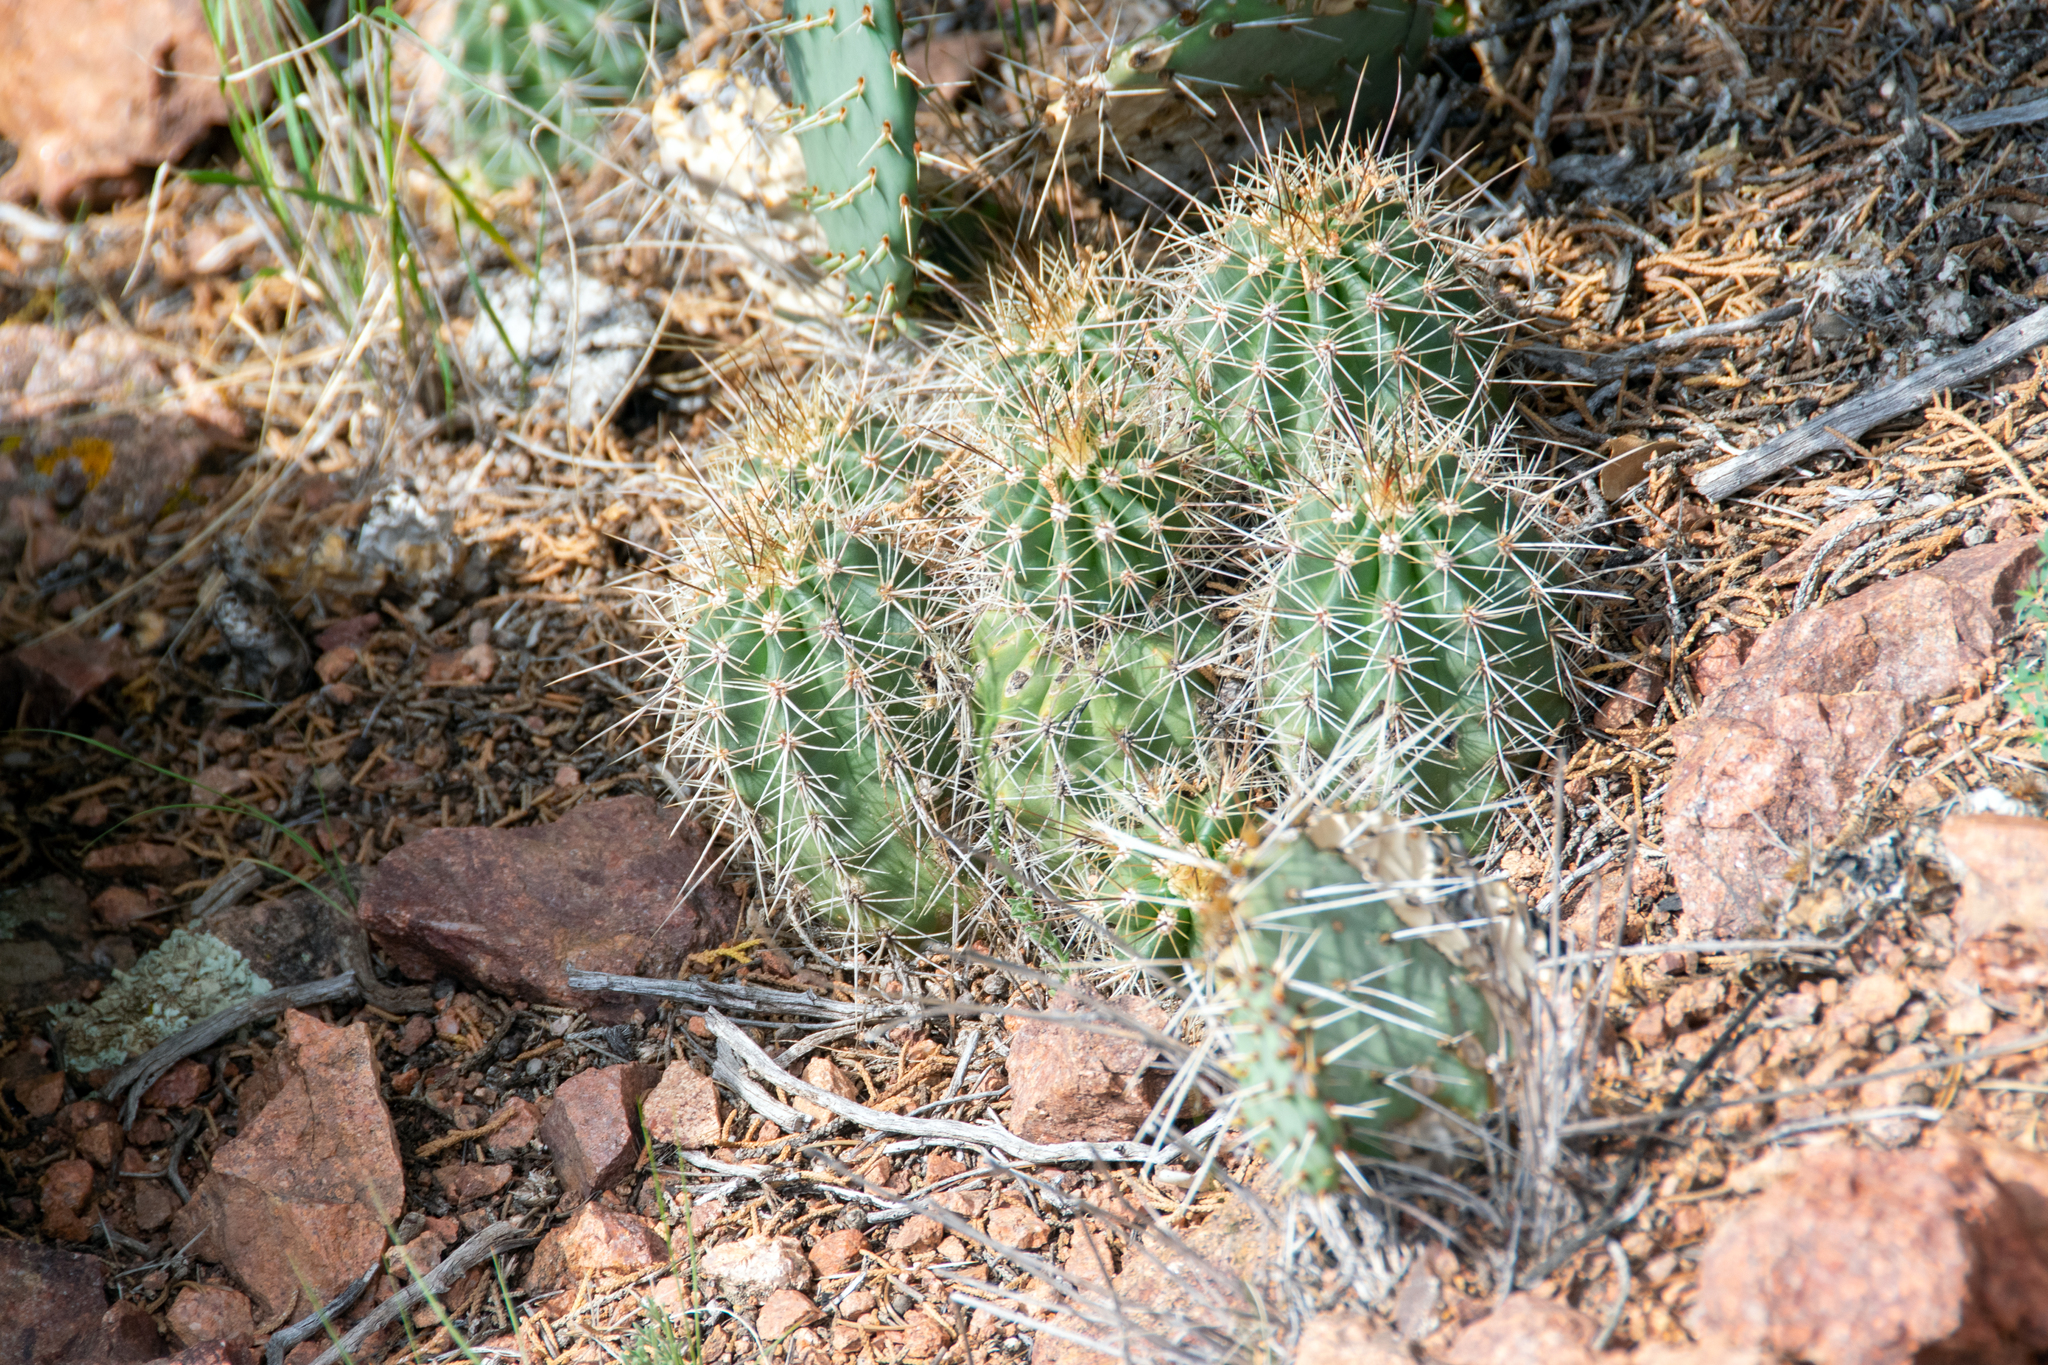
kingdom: Plantae
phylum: Tracheophyta
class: Magnoliopsida
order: Caryophyllales
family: Cactaceae
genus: Echinocereus
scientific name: Echinocereus coccineus
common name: Scarlet hedgehog cactus
